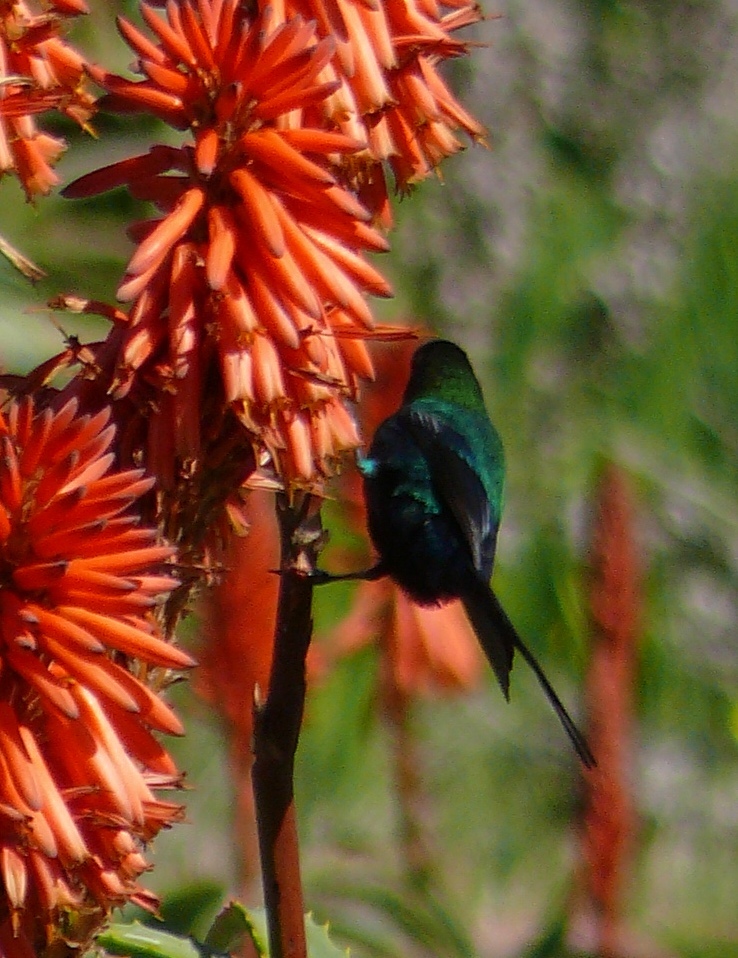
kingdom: Animalia
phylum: Chordata
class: Aves
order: Passeriformes
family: Nectariniidae
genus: Nectarinia
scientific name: Nectarinia famosa
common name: Malachite sunbird
